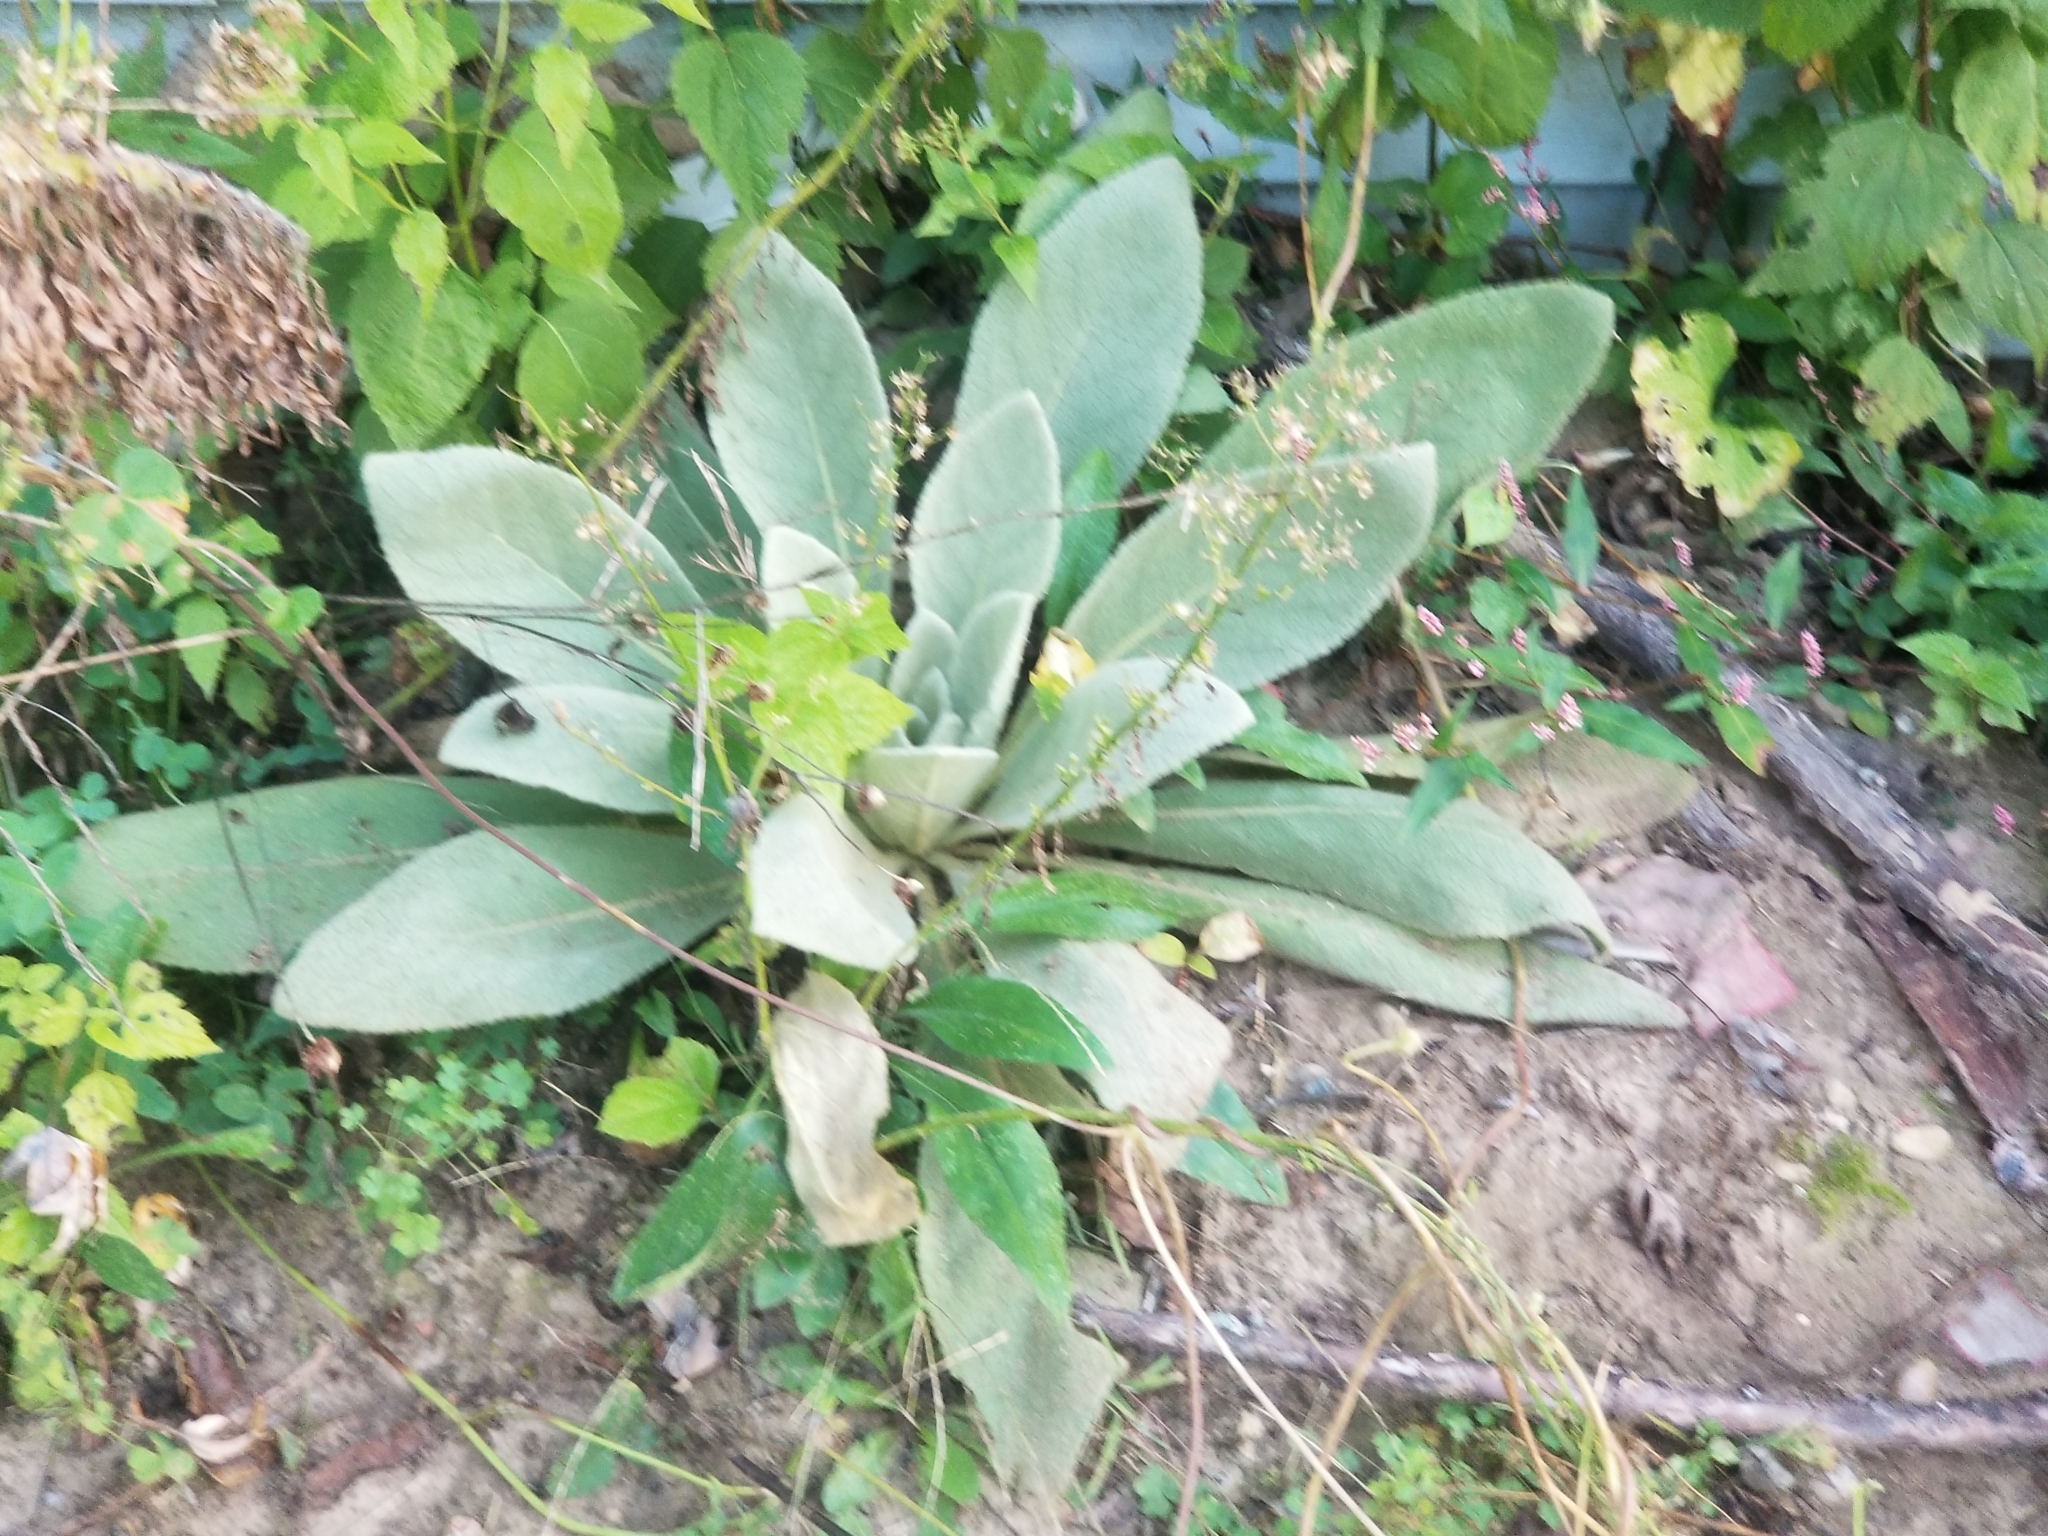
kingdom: Plantae
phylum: Tracheophyta
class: Magnoliopsida
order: Lamiales
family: Scrophulariaceae
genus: Verbascum
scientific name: Verbascum thapsus
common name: Common mullein
